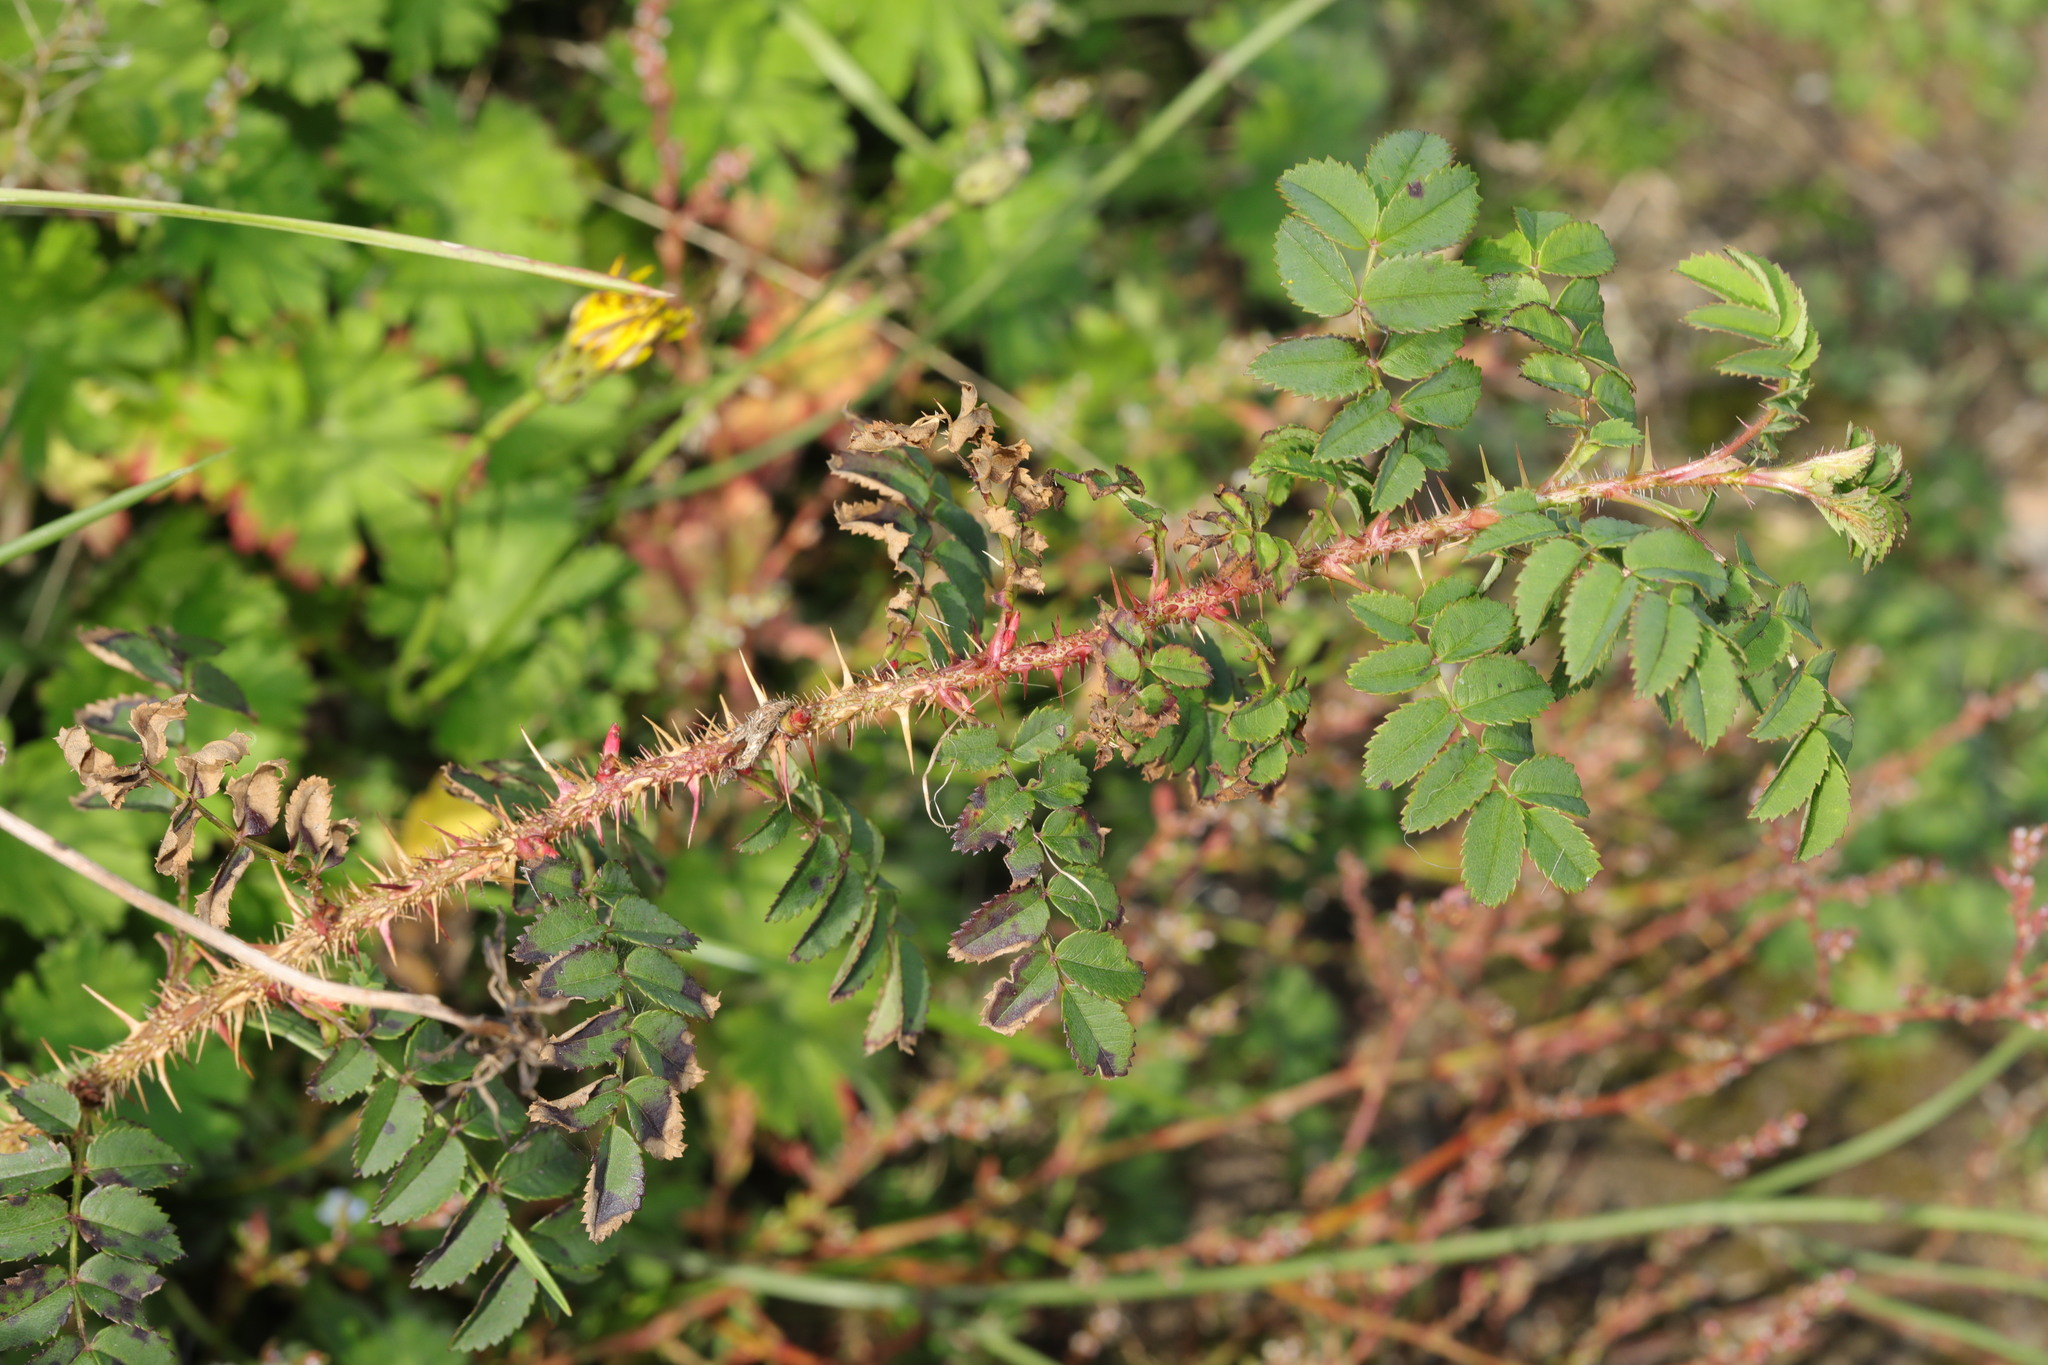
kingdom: Plantae
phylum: Tracheophyta
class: Magnoliopsida
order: Rosales
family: Rosaceae
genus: Rosa
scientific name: Rosa spinosissima
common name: Burnet rose
